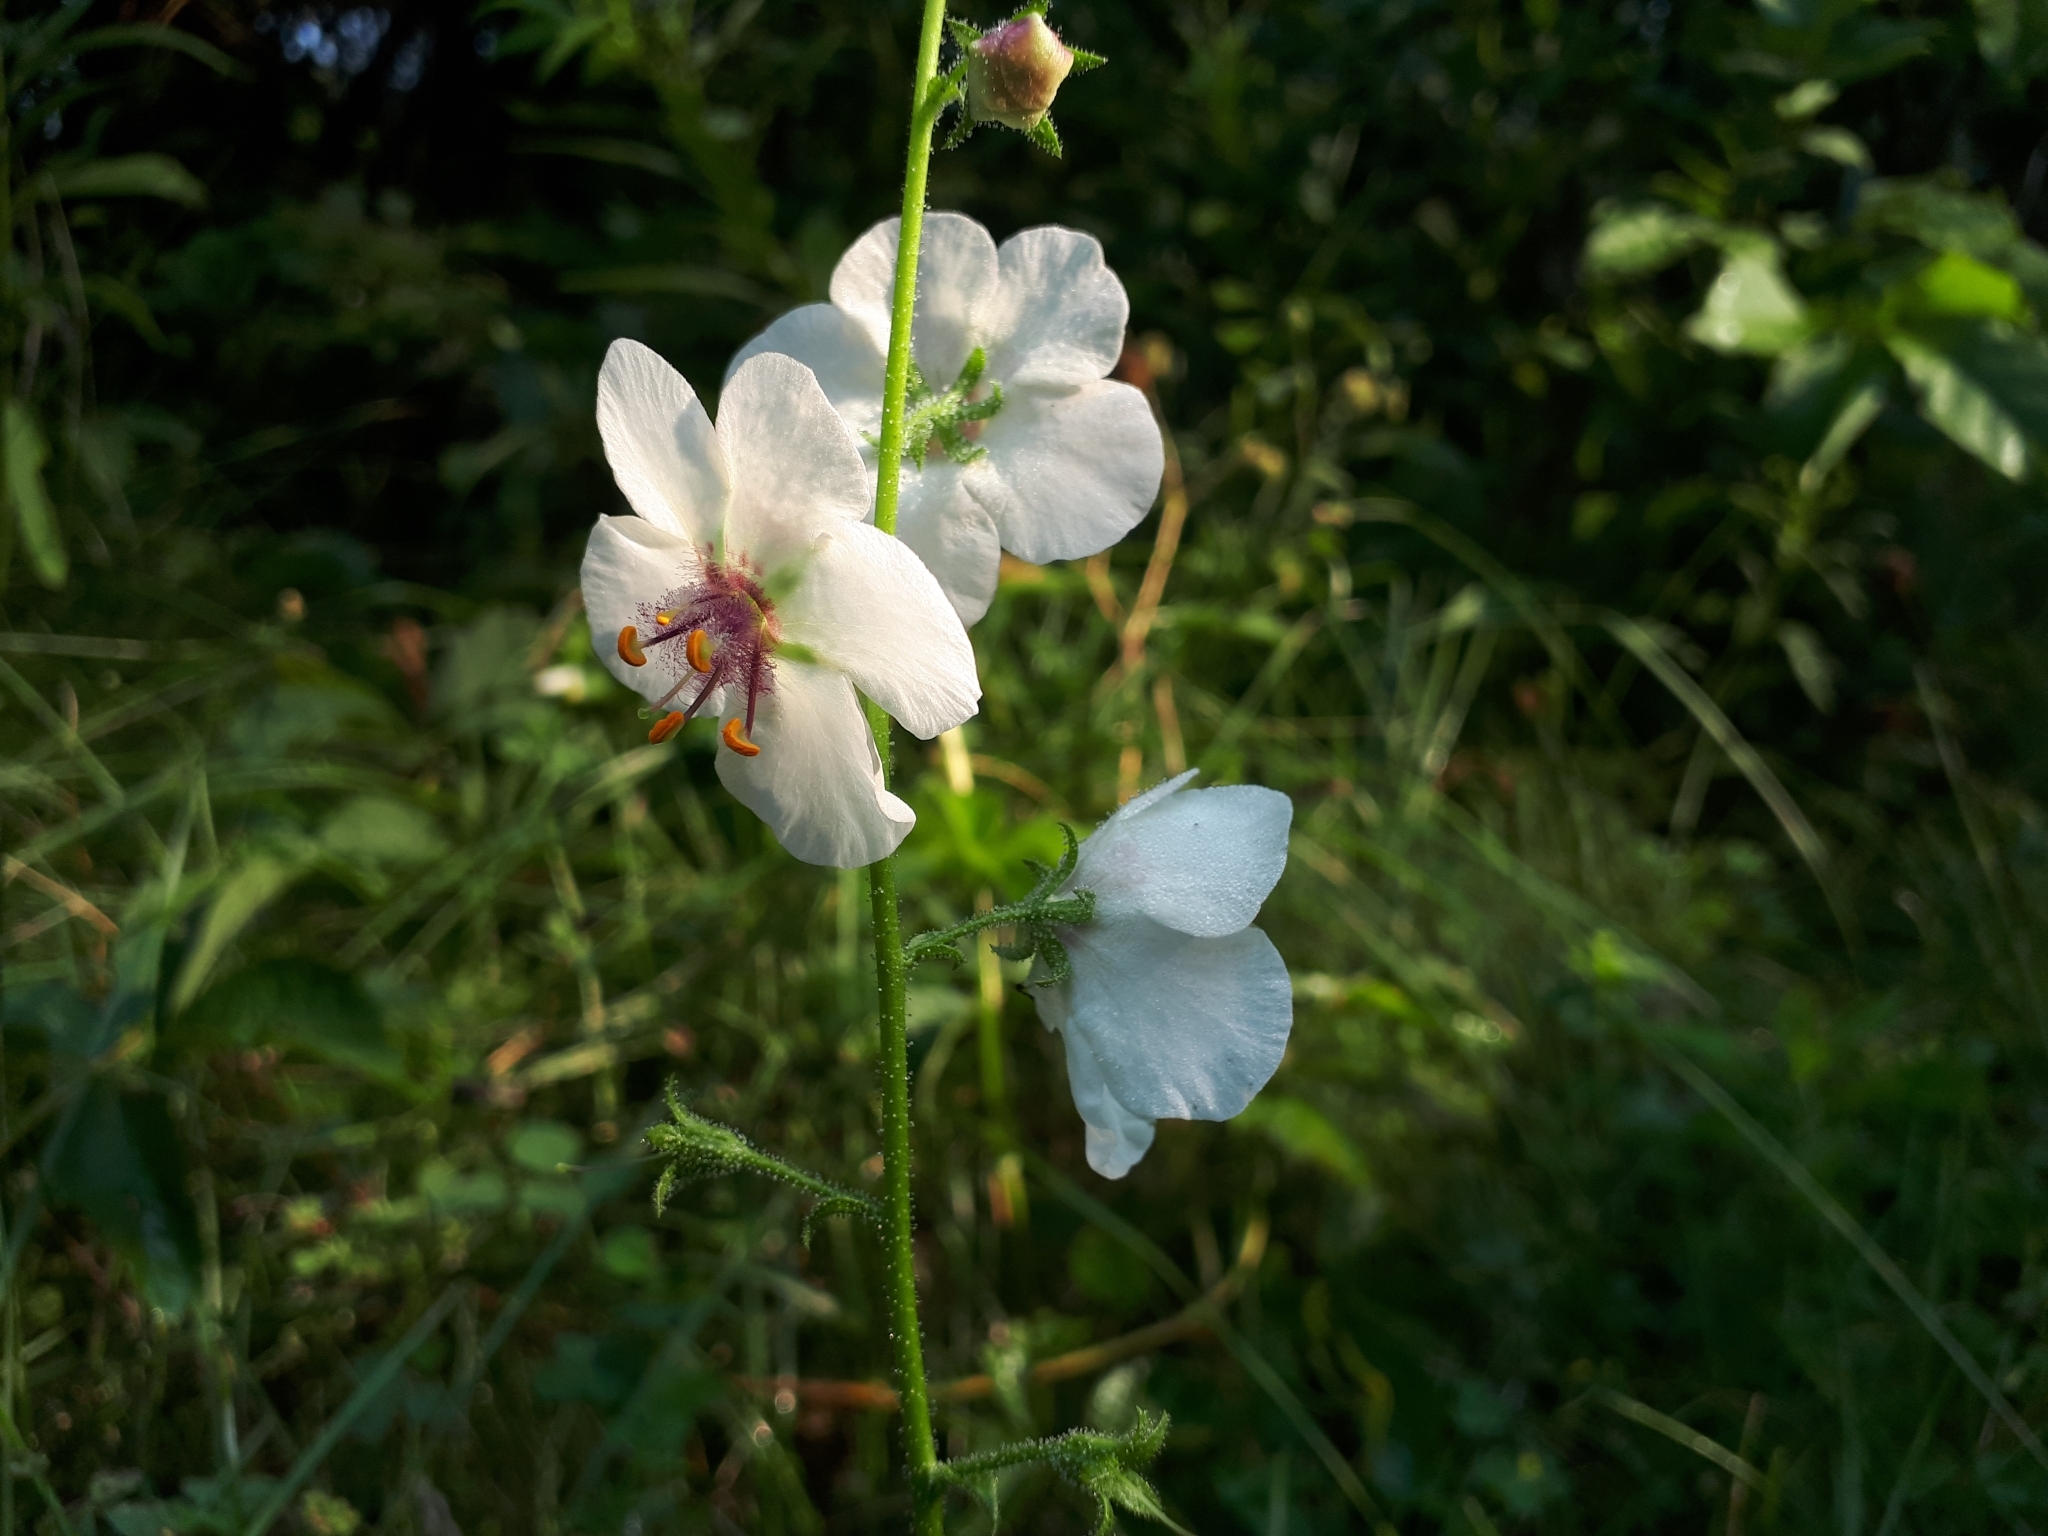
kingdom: Plantae
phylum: Tracheophyta
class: Magnoliopsida
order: Lamiales
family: Scrophulariaceae
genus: Verbascum
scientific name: Verbascum blattaria
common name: Moth mullein
